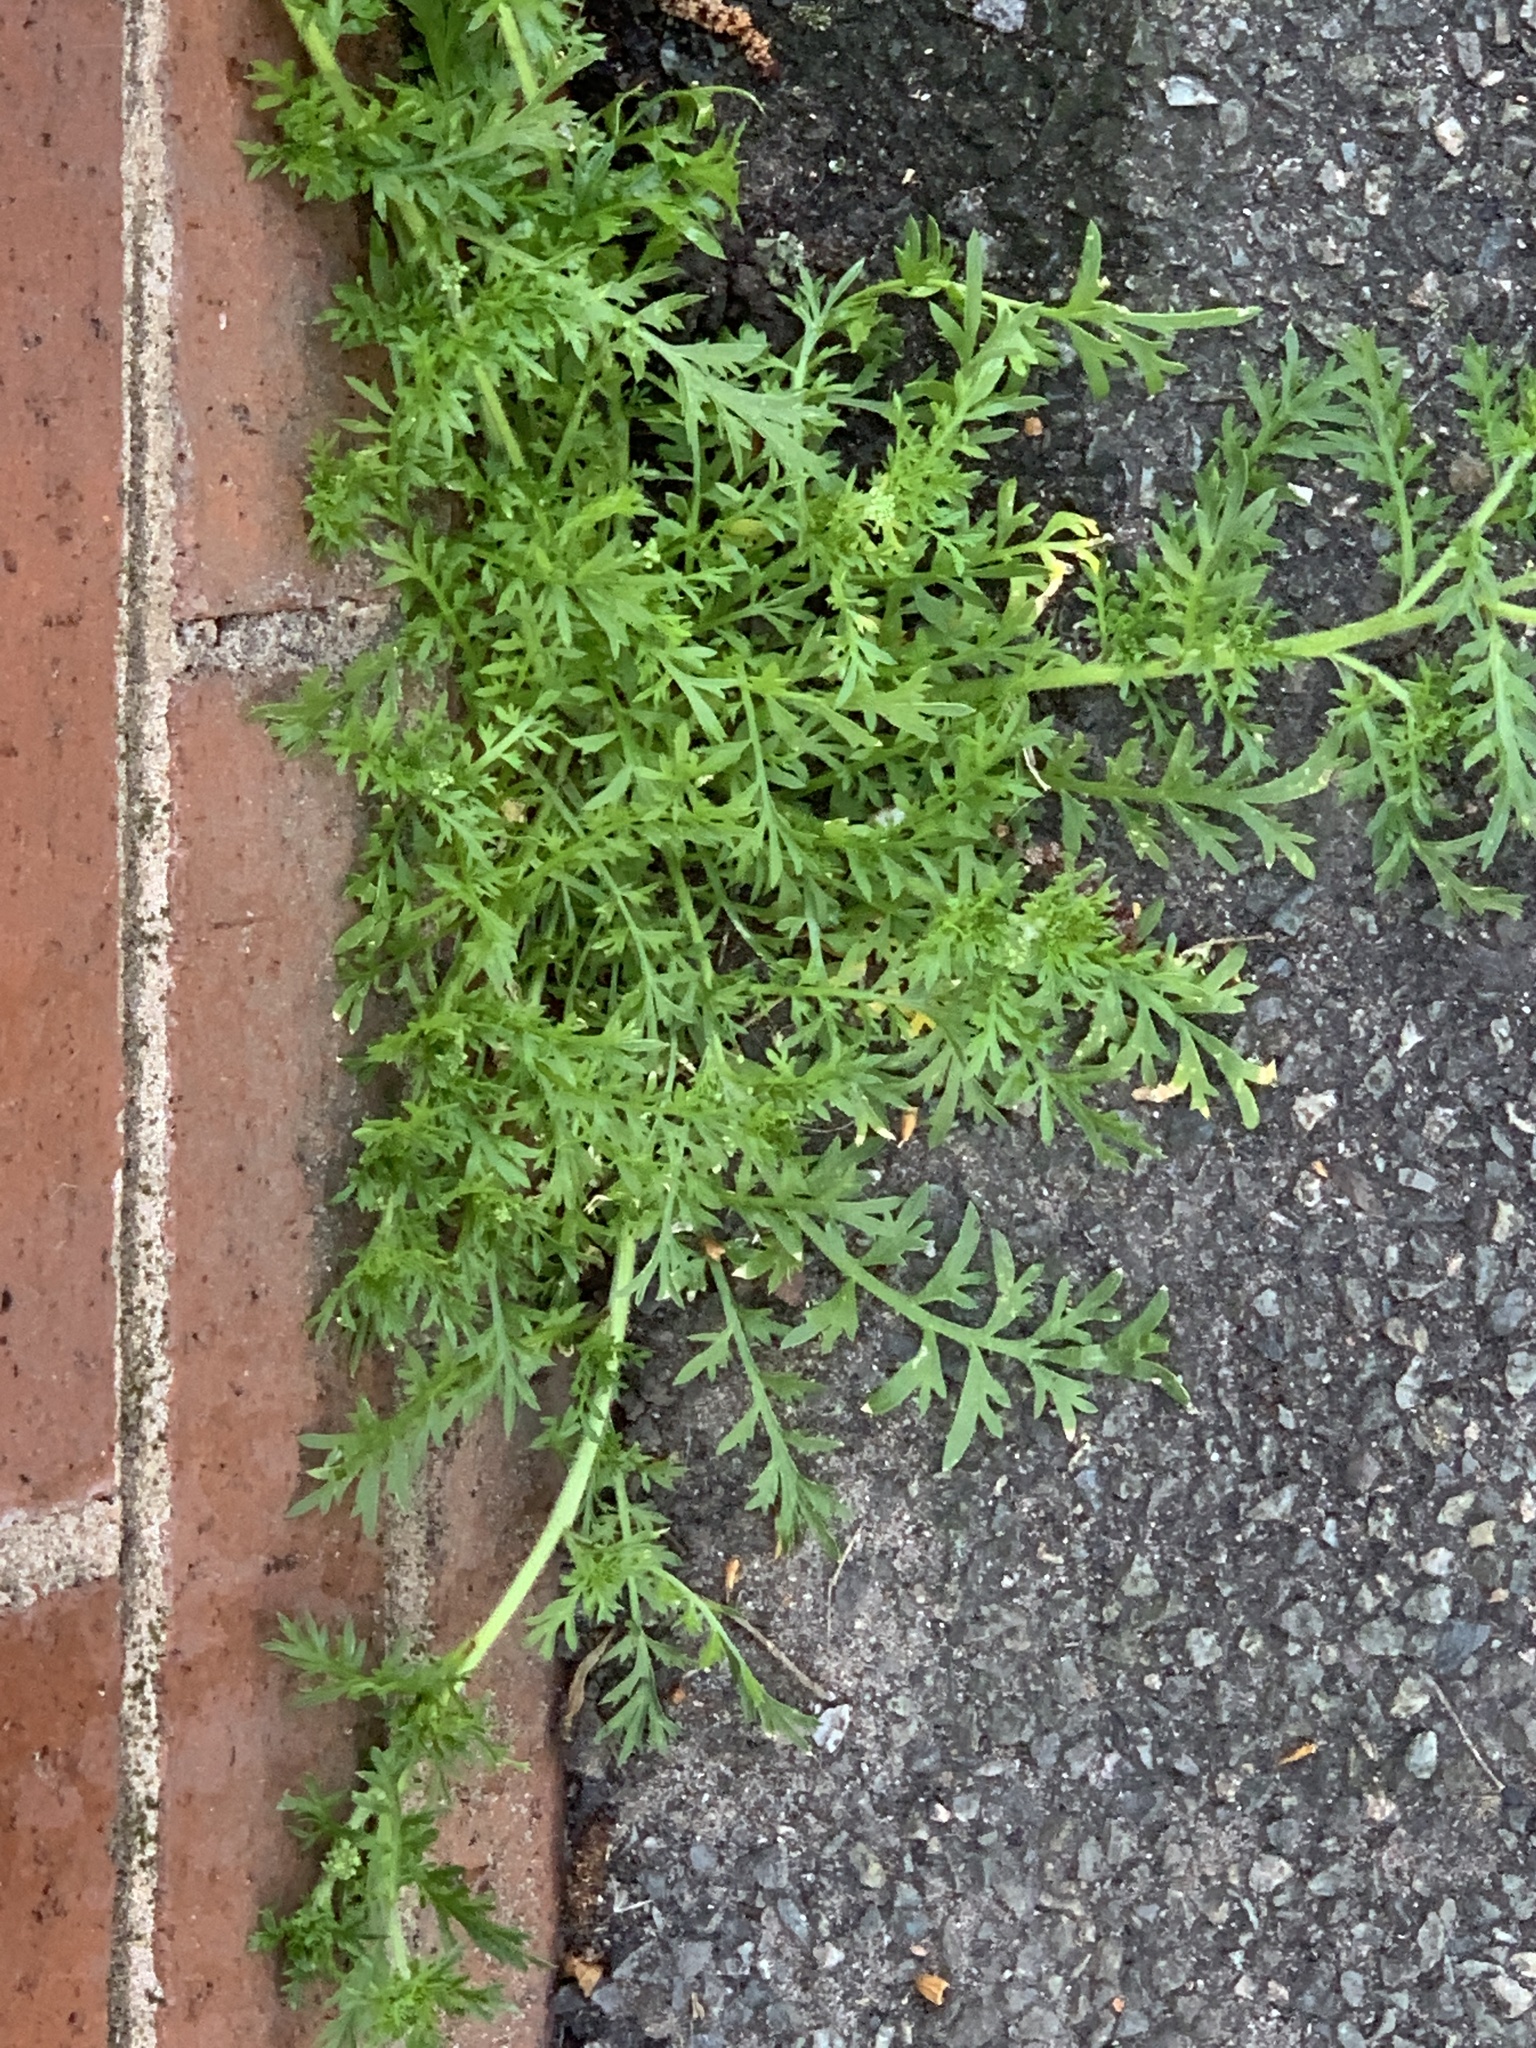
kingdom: Plantae
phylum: Tracheophyta
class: Magnoliopsida
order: Brassicales
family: Brassicaceae
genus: Lepidium
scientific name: Lepidium didymum
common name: Lesser swinecress
